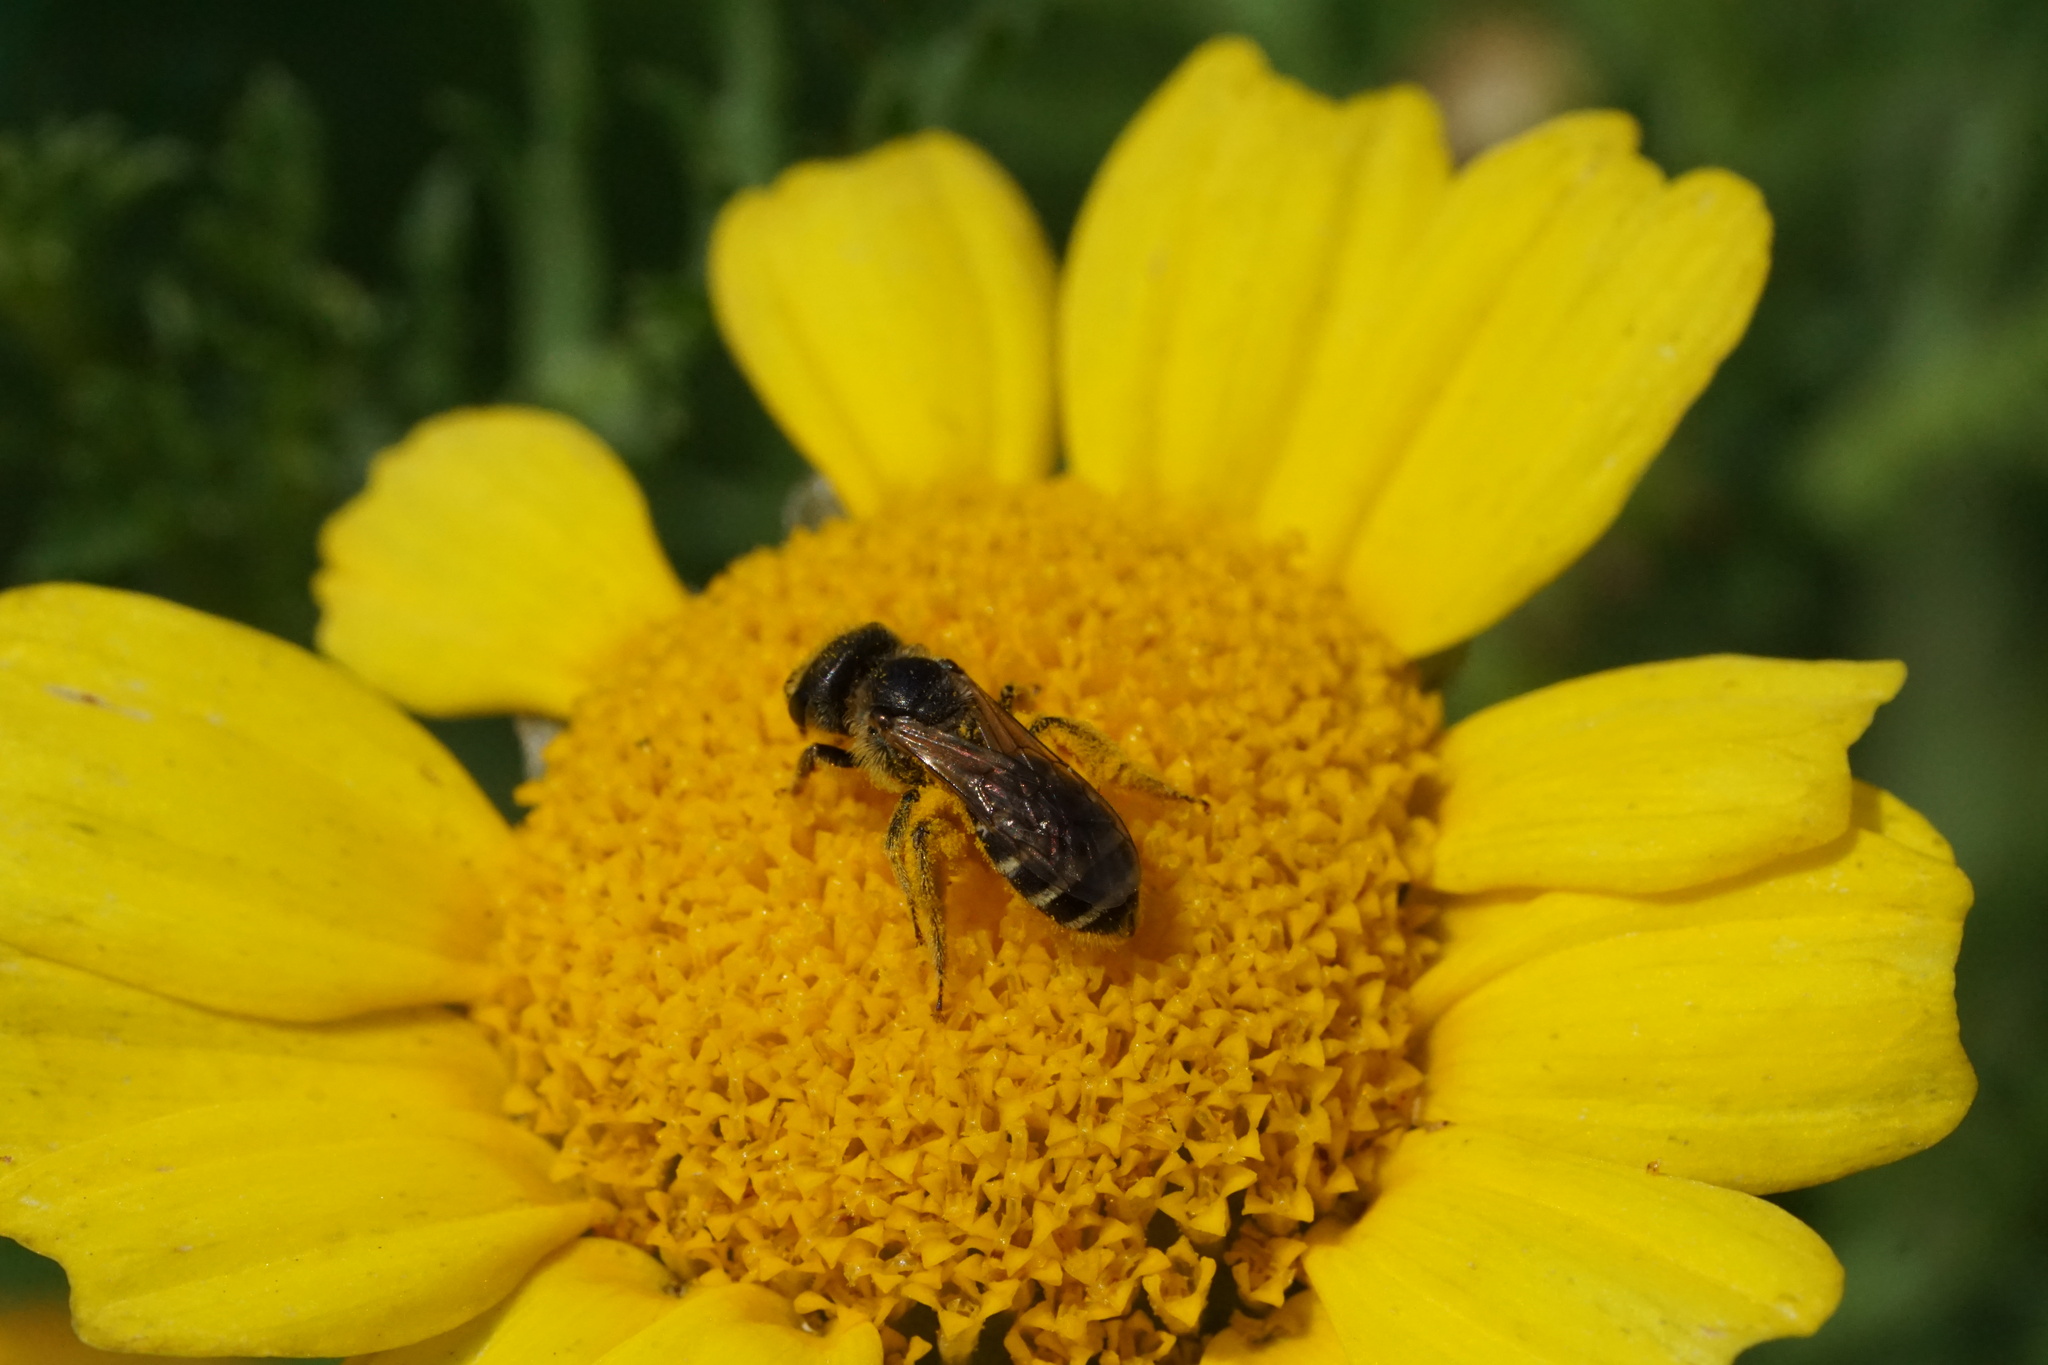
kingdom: Animalia
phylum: Arthropoda
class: Insecta
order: Hymenoptera
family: Halictidae
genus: Halictus
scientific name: Halictus ligatus
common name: Ligated furrow bee
